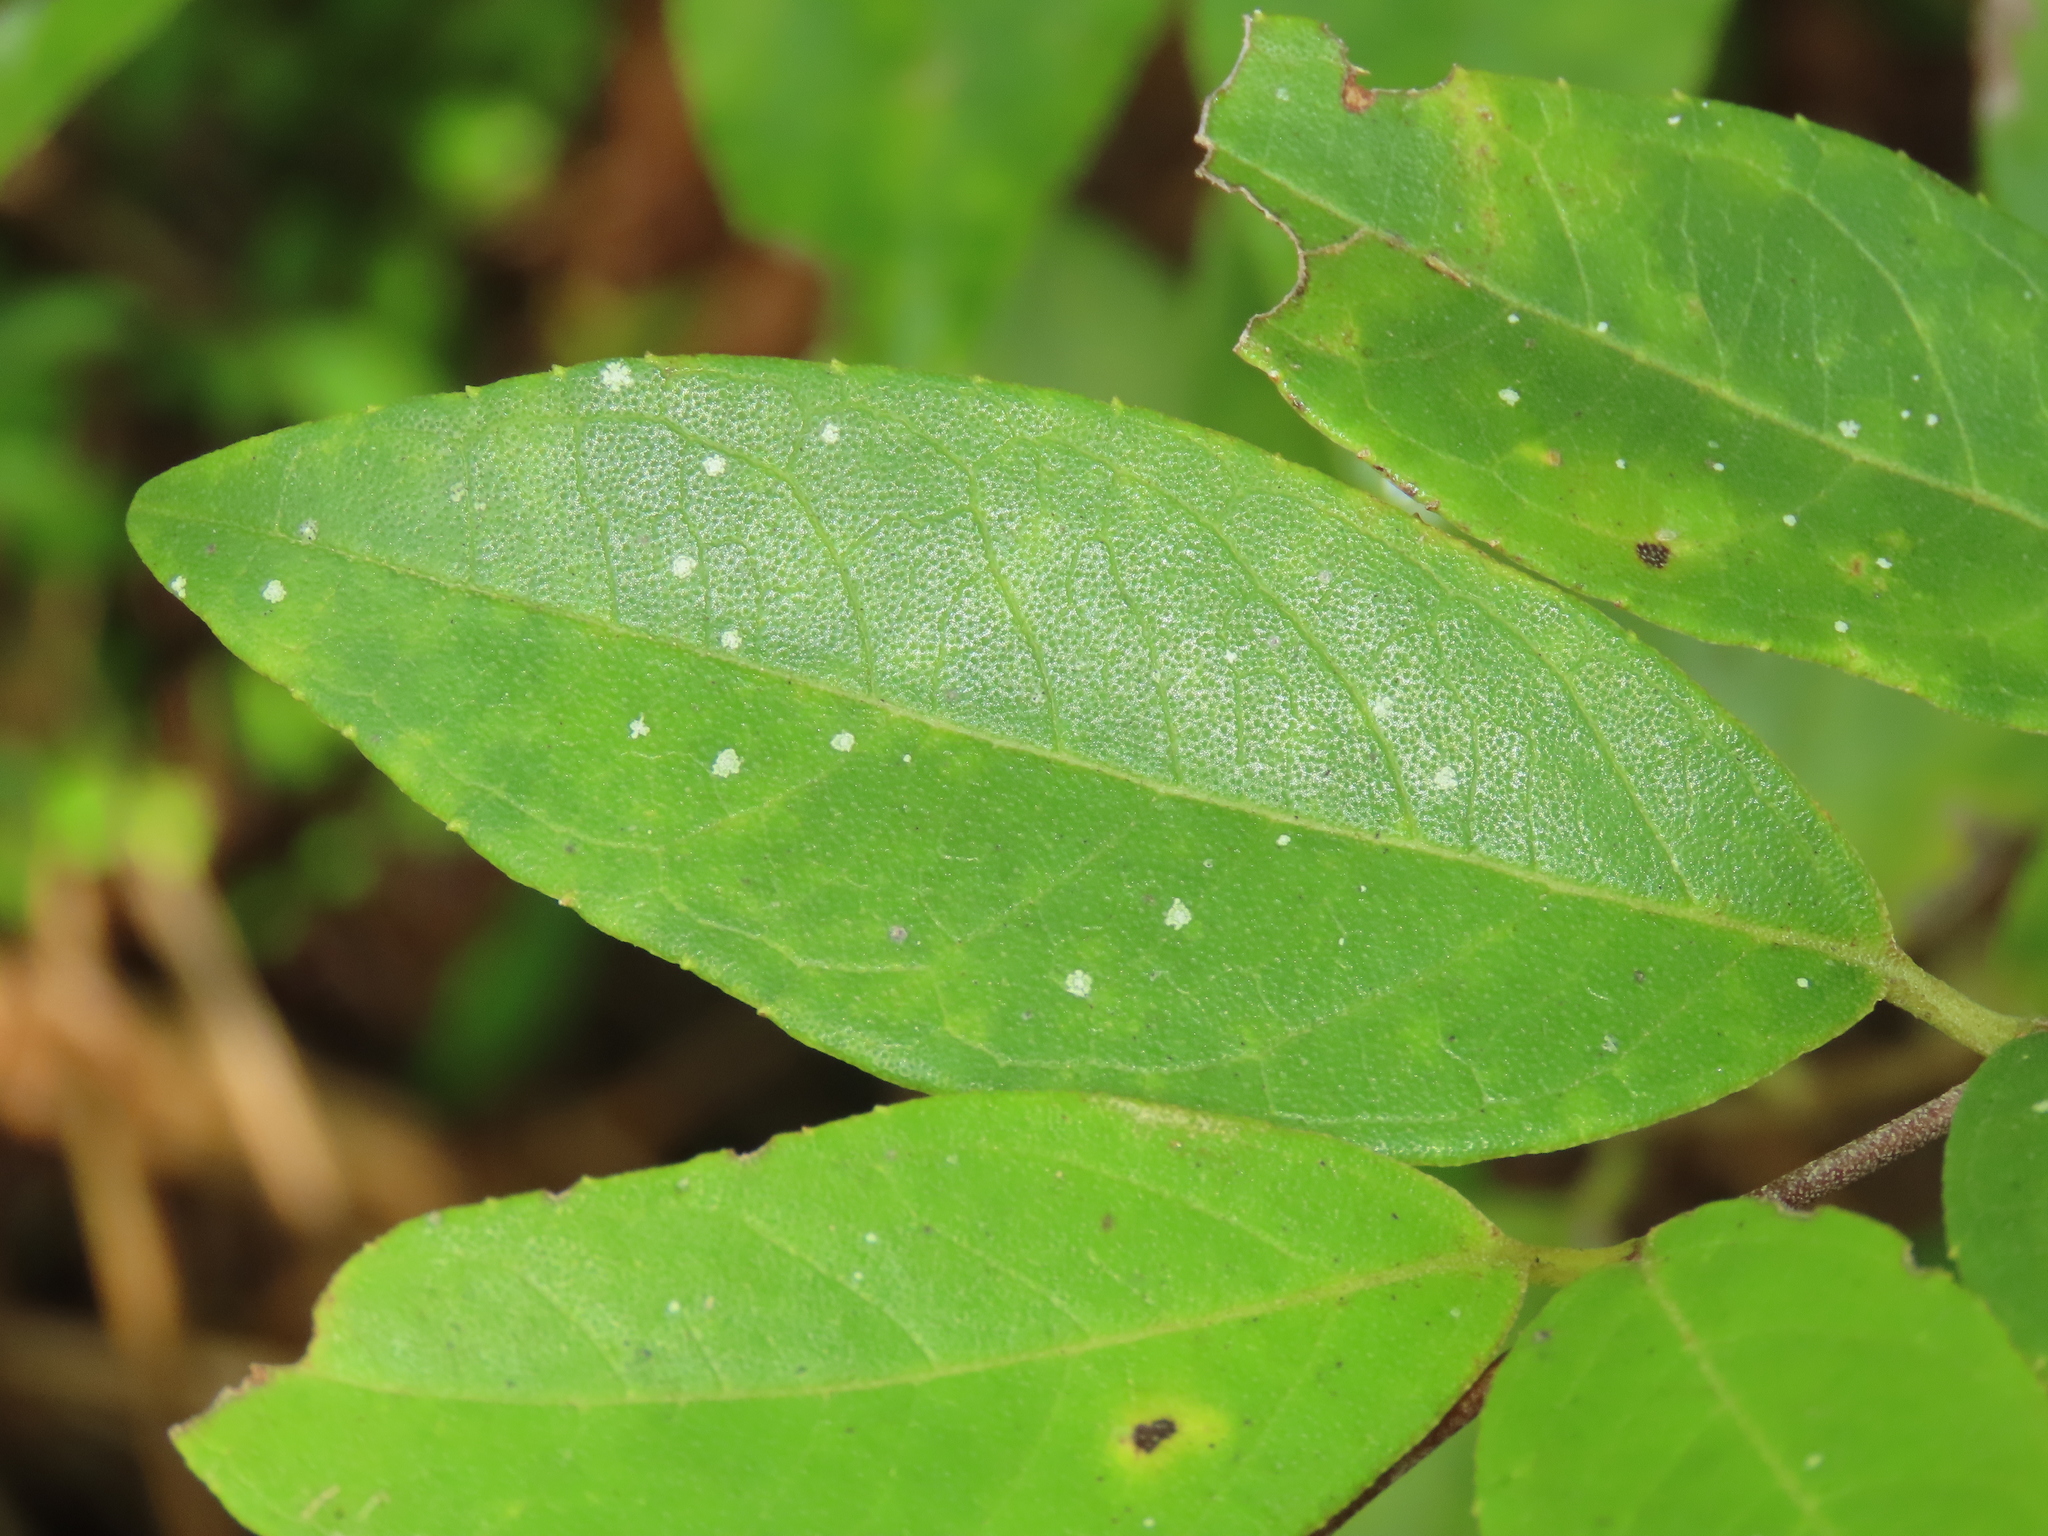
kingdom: Plantae
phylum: Tracheophyta
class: Magnoliopsida
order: Cornales
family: Hydrangeaceae
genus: Deutzia
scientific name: Deutzia pulchra
